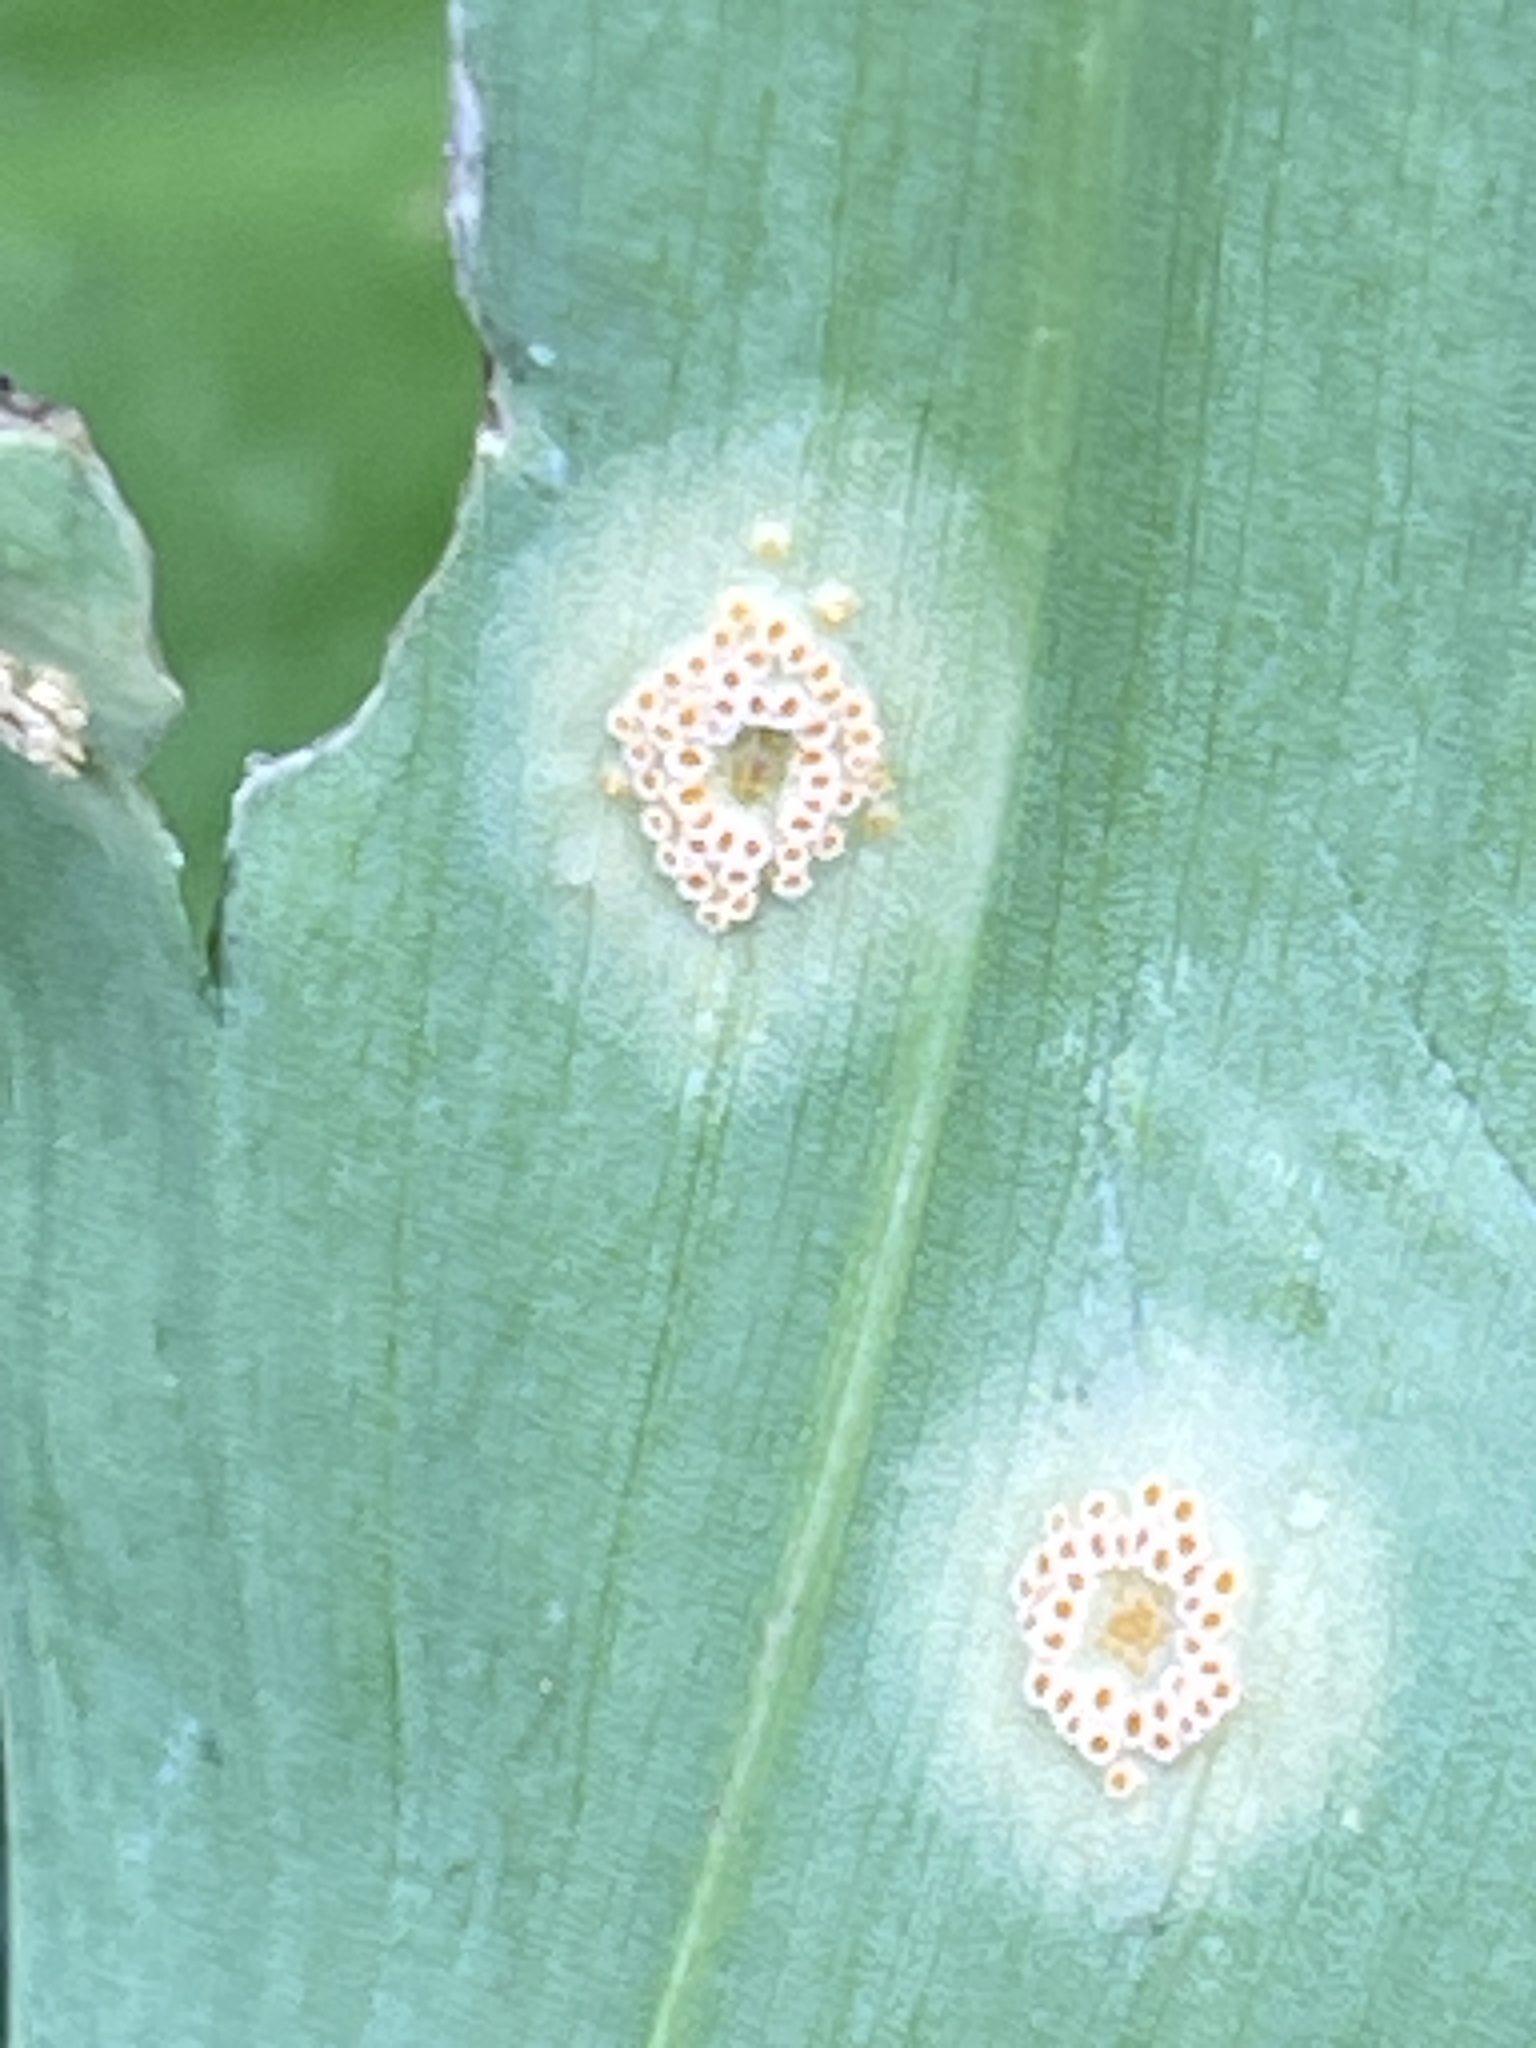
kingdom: Fungi
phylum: Basidiomycota
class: Pucciniomycetes
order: Pucciniales
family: Pucciniaceae
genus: Puccinia
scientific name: Puccinia sessilis
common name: Arum rust
